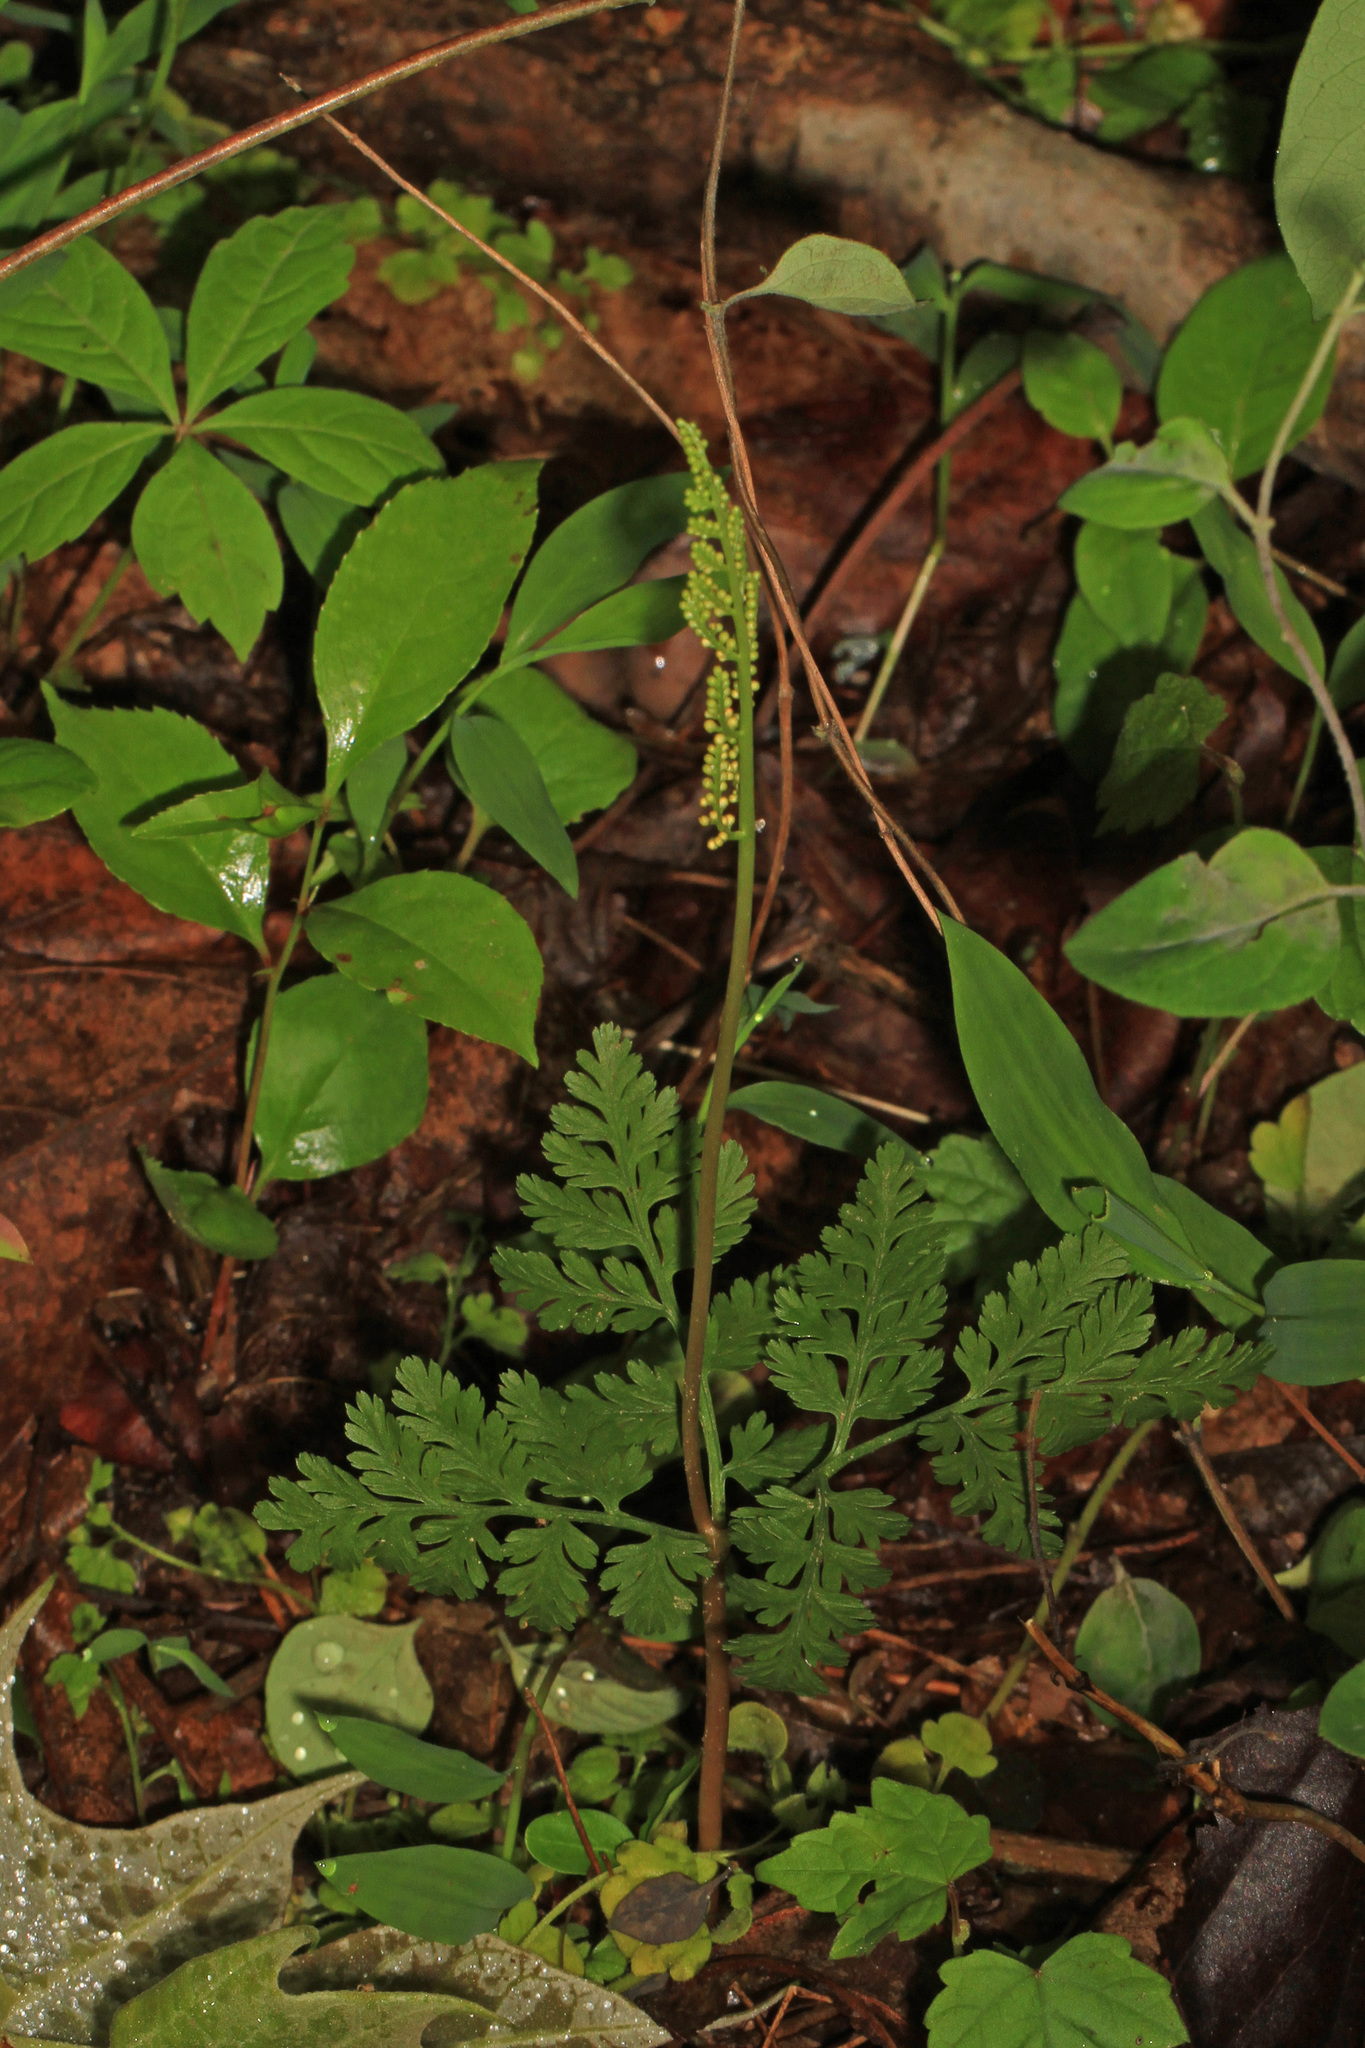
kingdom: Plantae
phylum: Tracheophyta
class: Polypodiopsida
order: Ophioglossales
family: Ophioglossaceae
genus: Botrypus
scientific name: Botrypus virginianus
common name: Common grapefern
